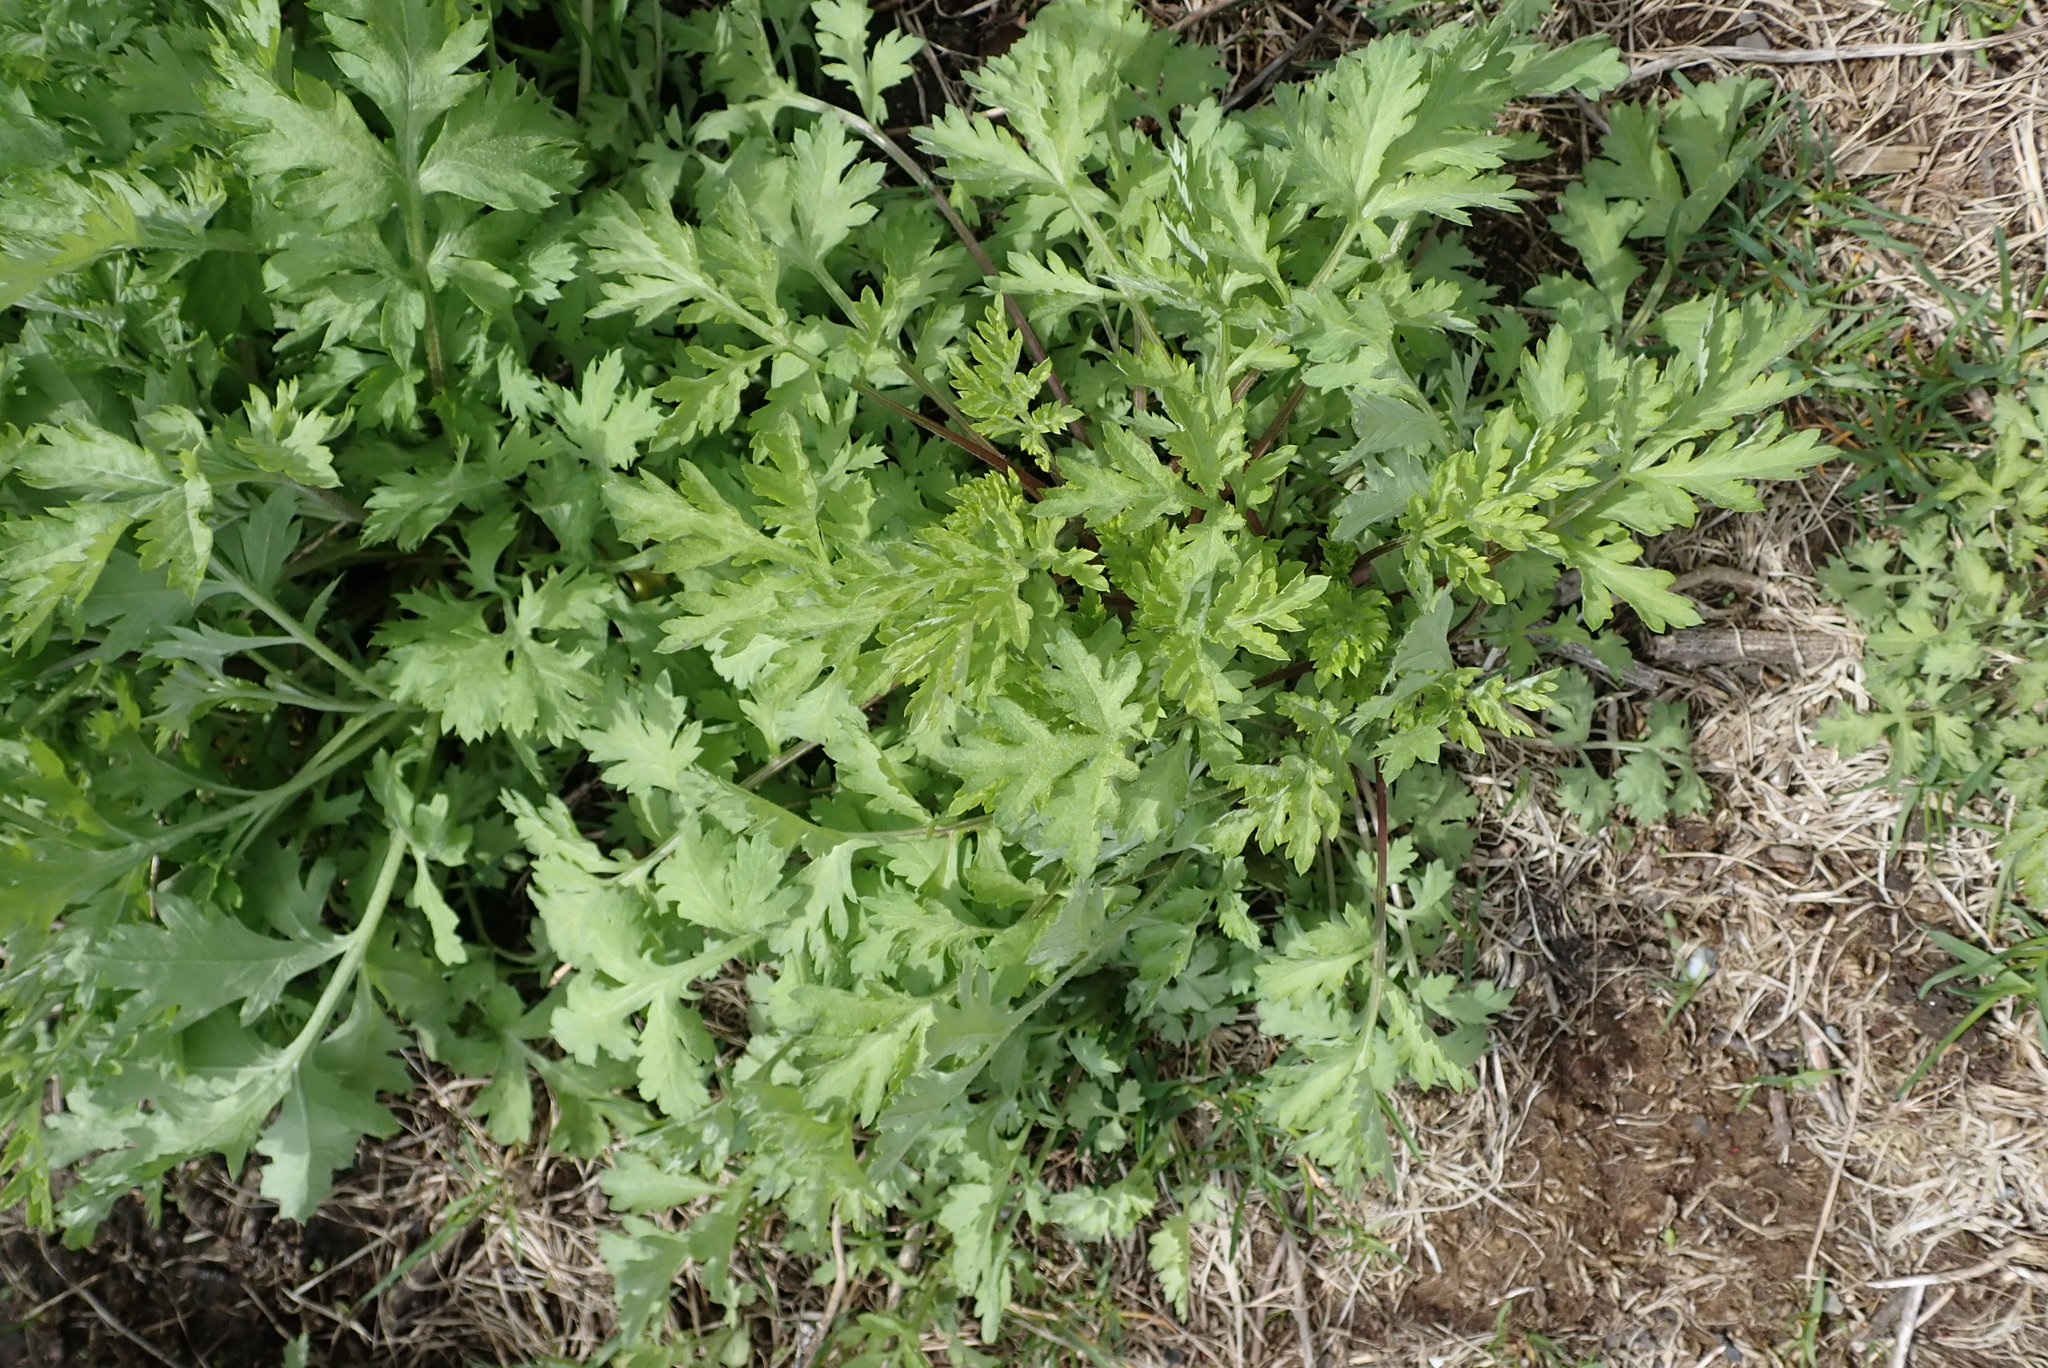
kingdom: Plantae
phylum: Tracheophyta
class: Magnoliopsida
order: Asterales
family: Asteraceae
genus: Artemisia
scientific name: Artemisia vulgaris
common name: Mugwort
